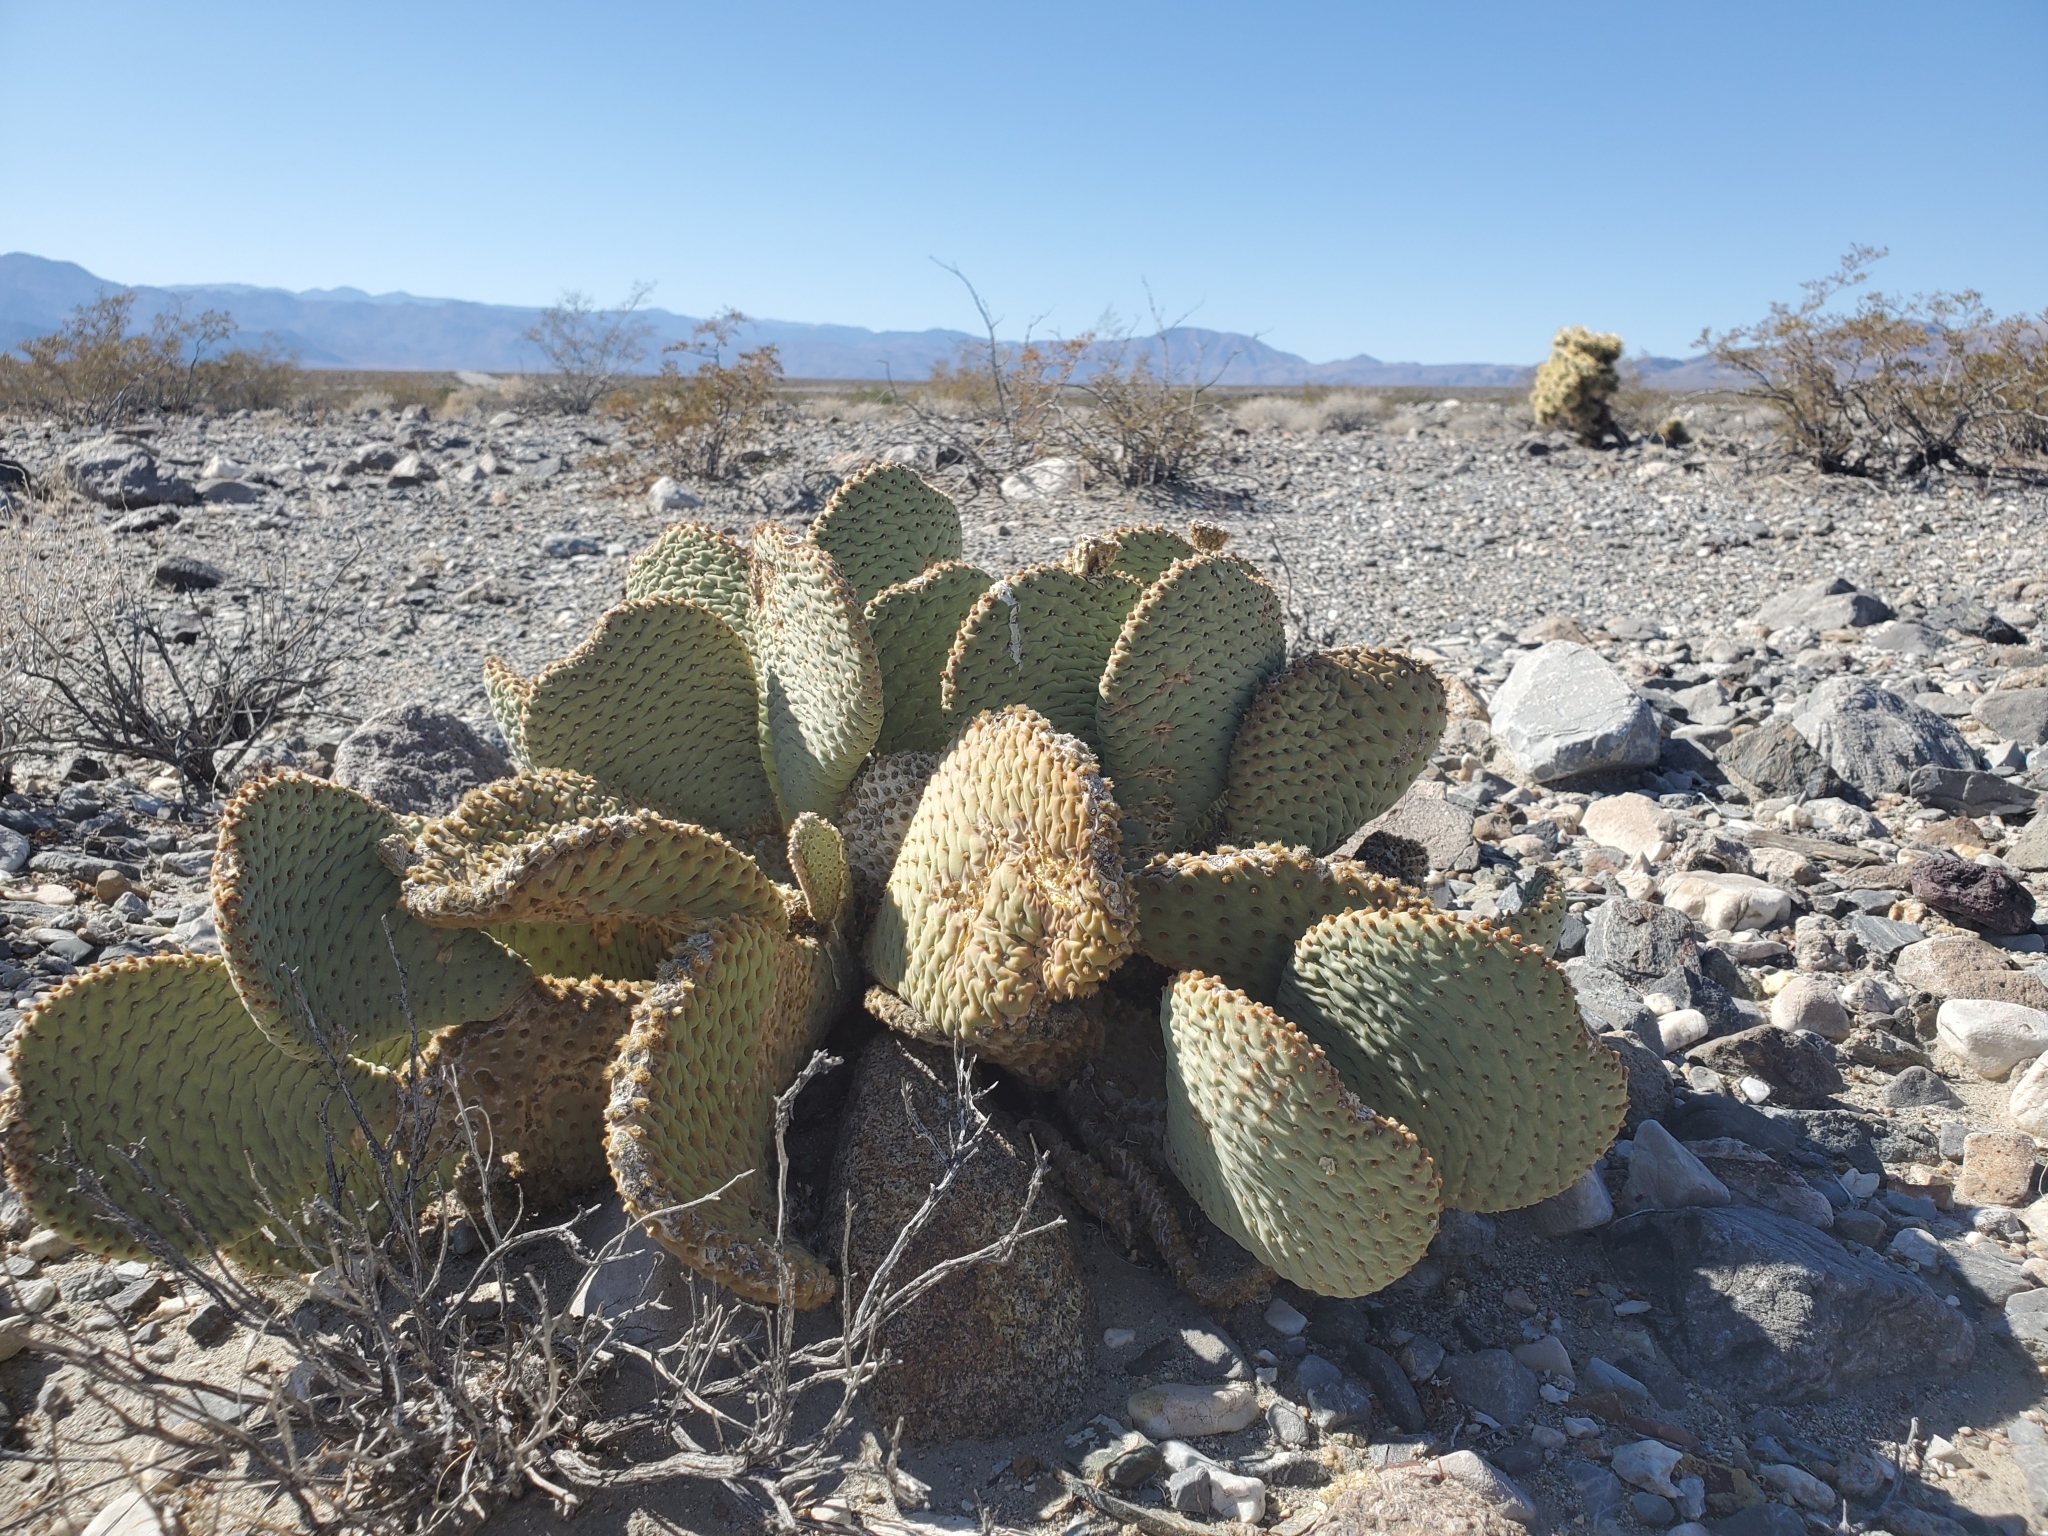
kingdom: Plantae
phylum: Tracheophyta
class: Magnoliopsida
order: Caryophyllales
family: Cactaceae
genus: Opuntia
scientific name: Opuntia basilaris
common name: Beavertail prickly-pear
